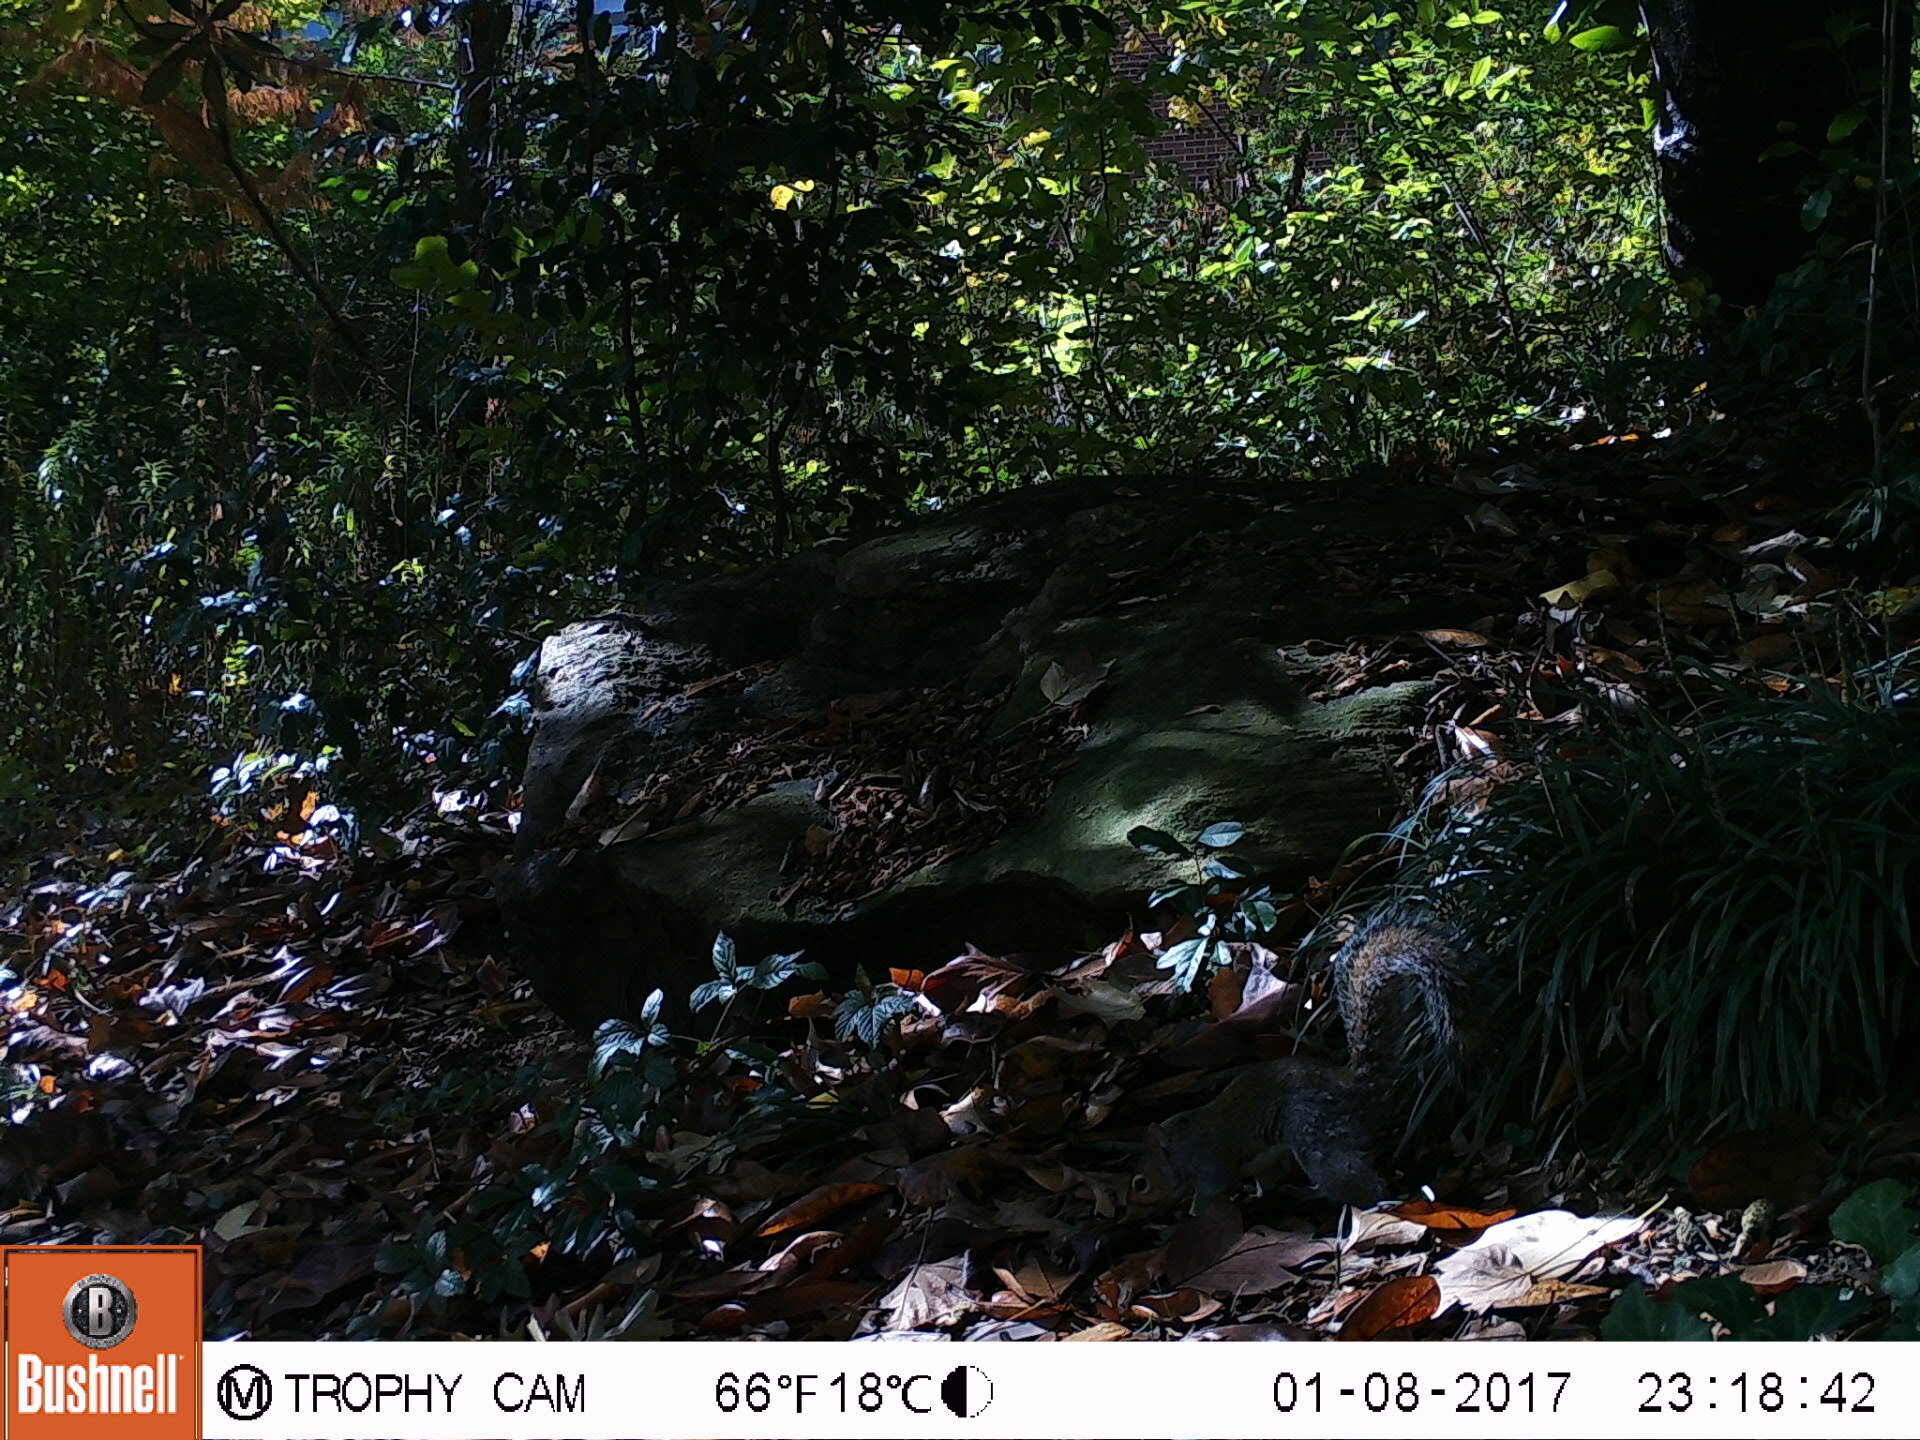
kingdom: Animalia
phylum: Chordata
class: Mammalia
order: Rodentia
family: Sciuridae
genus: Sciurus
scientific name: Sciurus carolinensis
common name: Eastern gray squirrel
